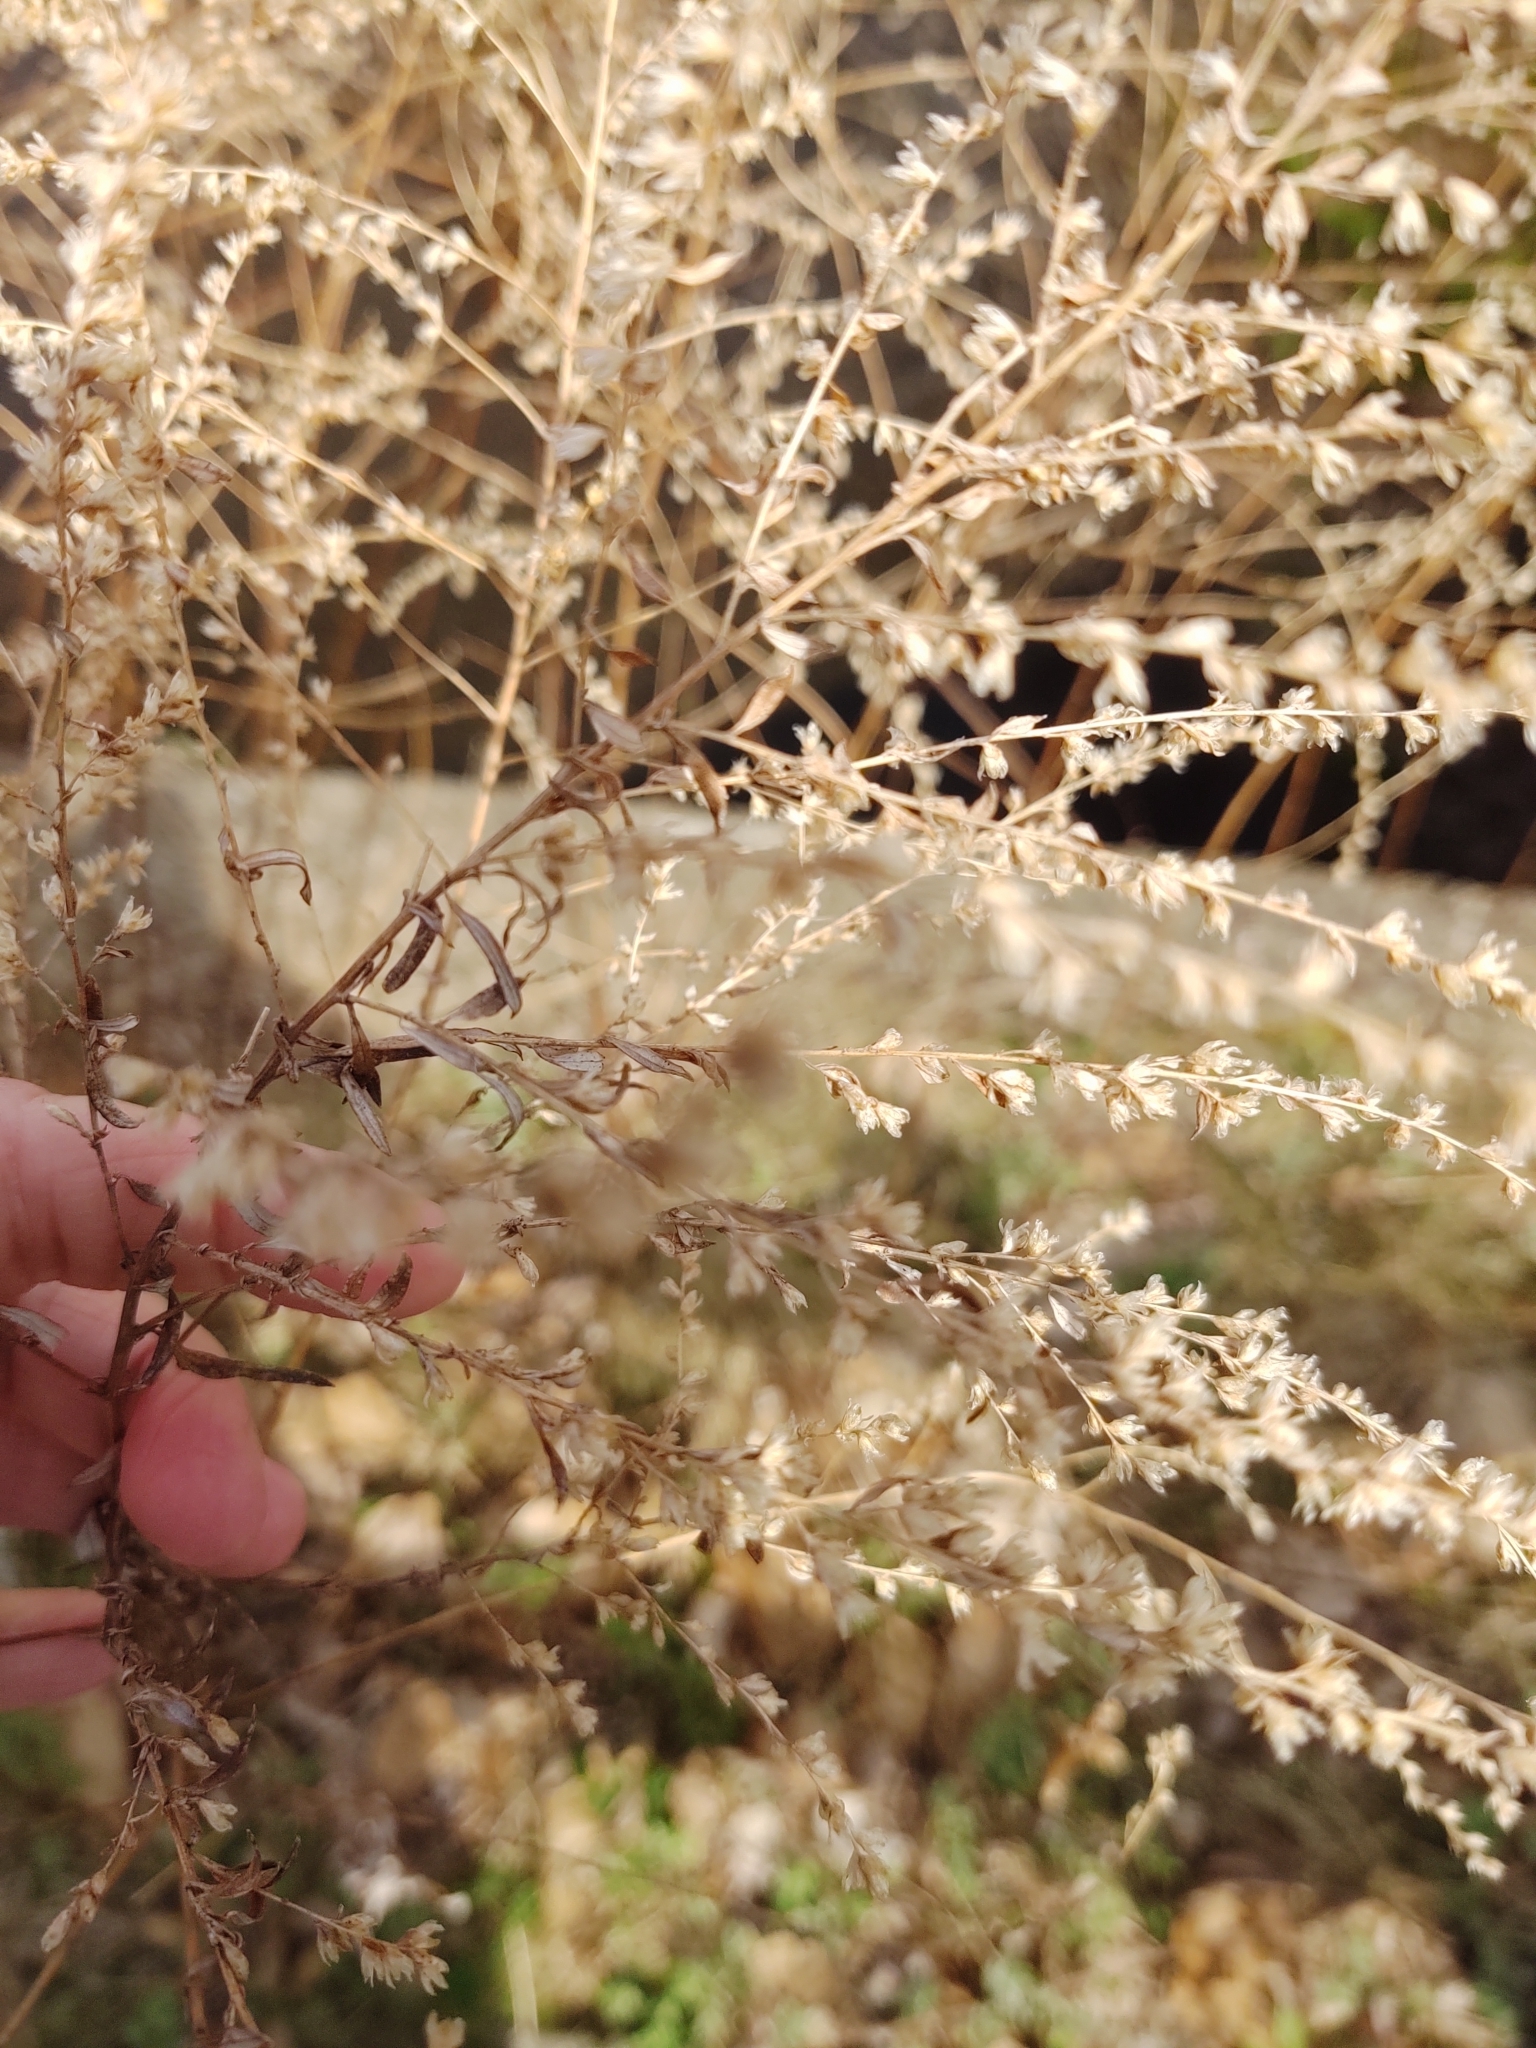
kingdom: Plantae
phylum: Tracheophyta
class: Magnoliopsida
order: Asterales
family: Asteraceae
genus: Artemisia
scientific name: Artemisia vulgaris
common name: Mugwort
